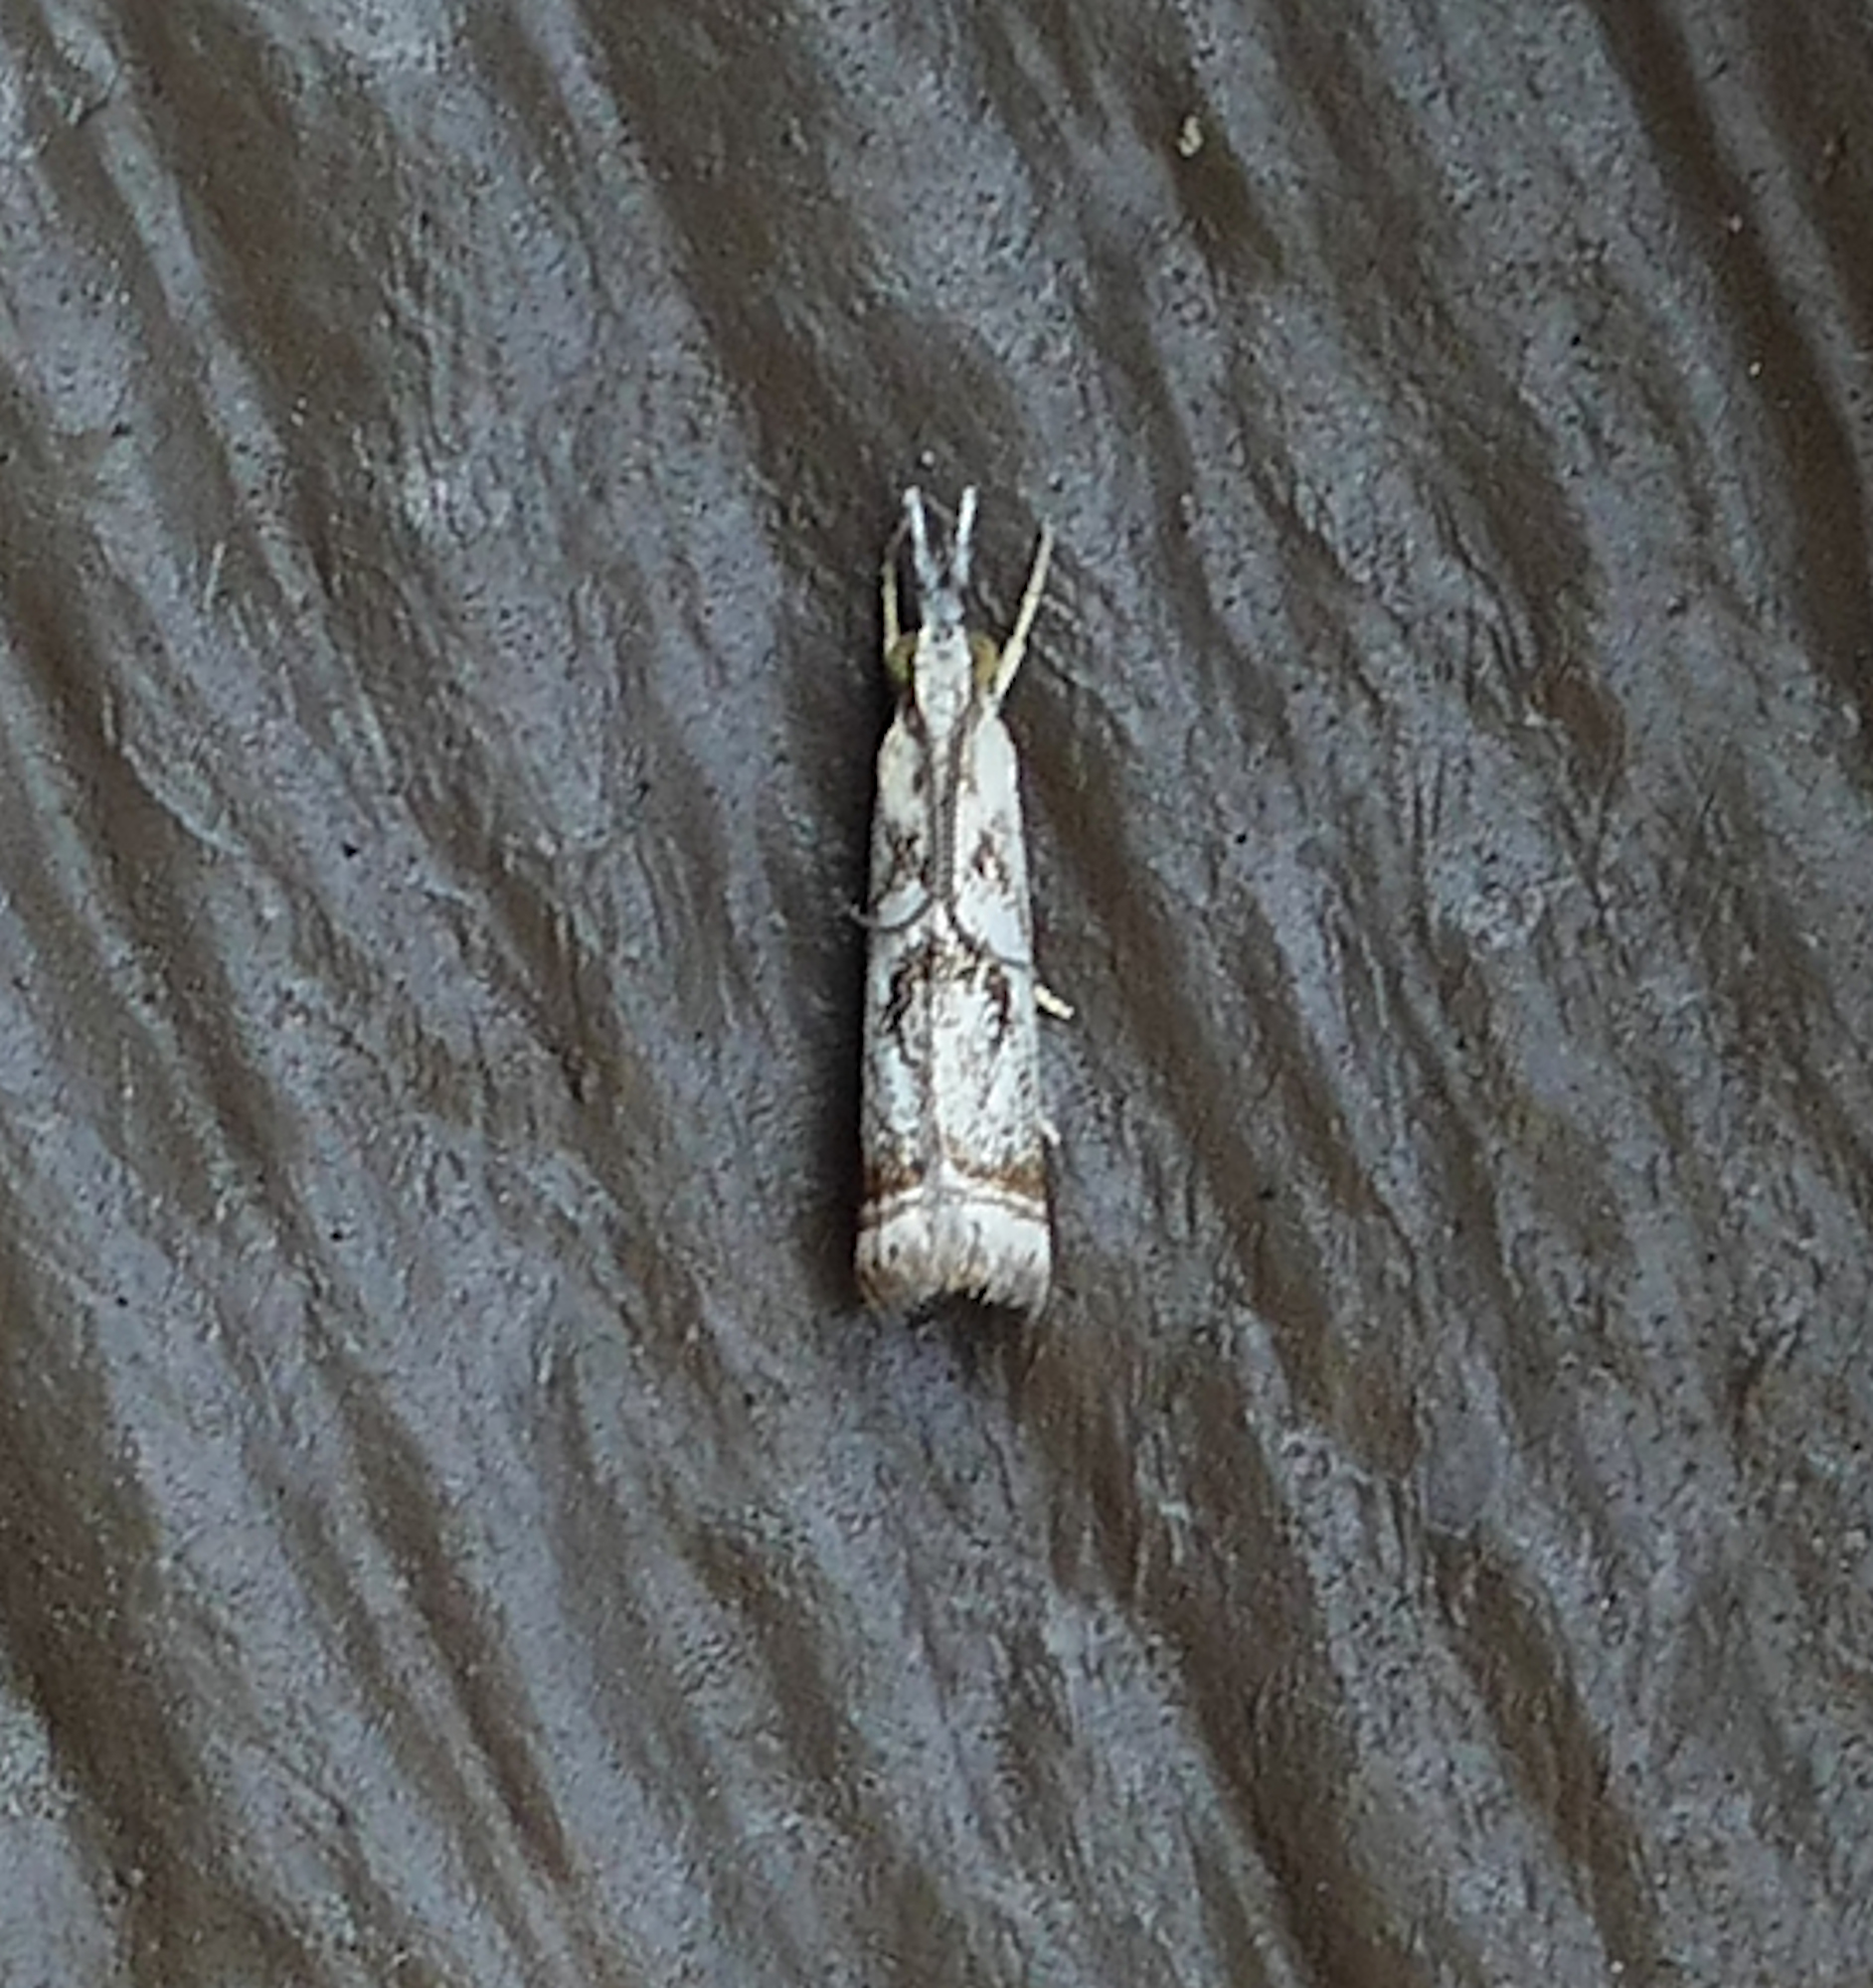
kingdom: Animalia
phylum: Arthropoda
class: Insecta
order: Lepidoptera
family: Crambidae
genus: Microcrambus
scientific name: Microcrambus elegans
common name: Elegant grass-veneer
